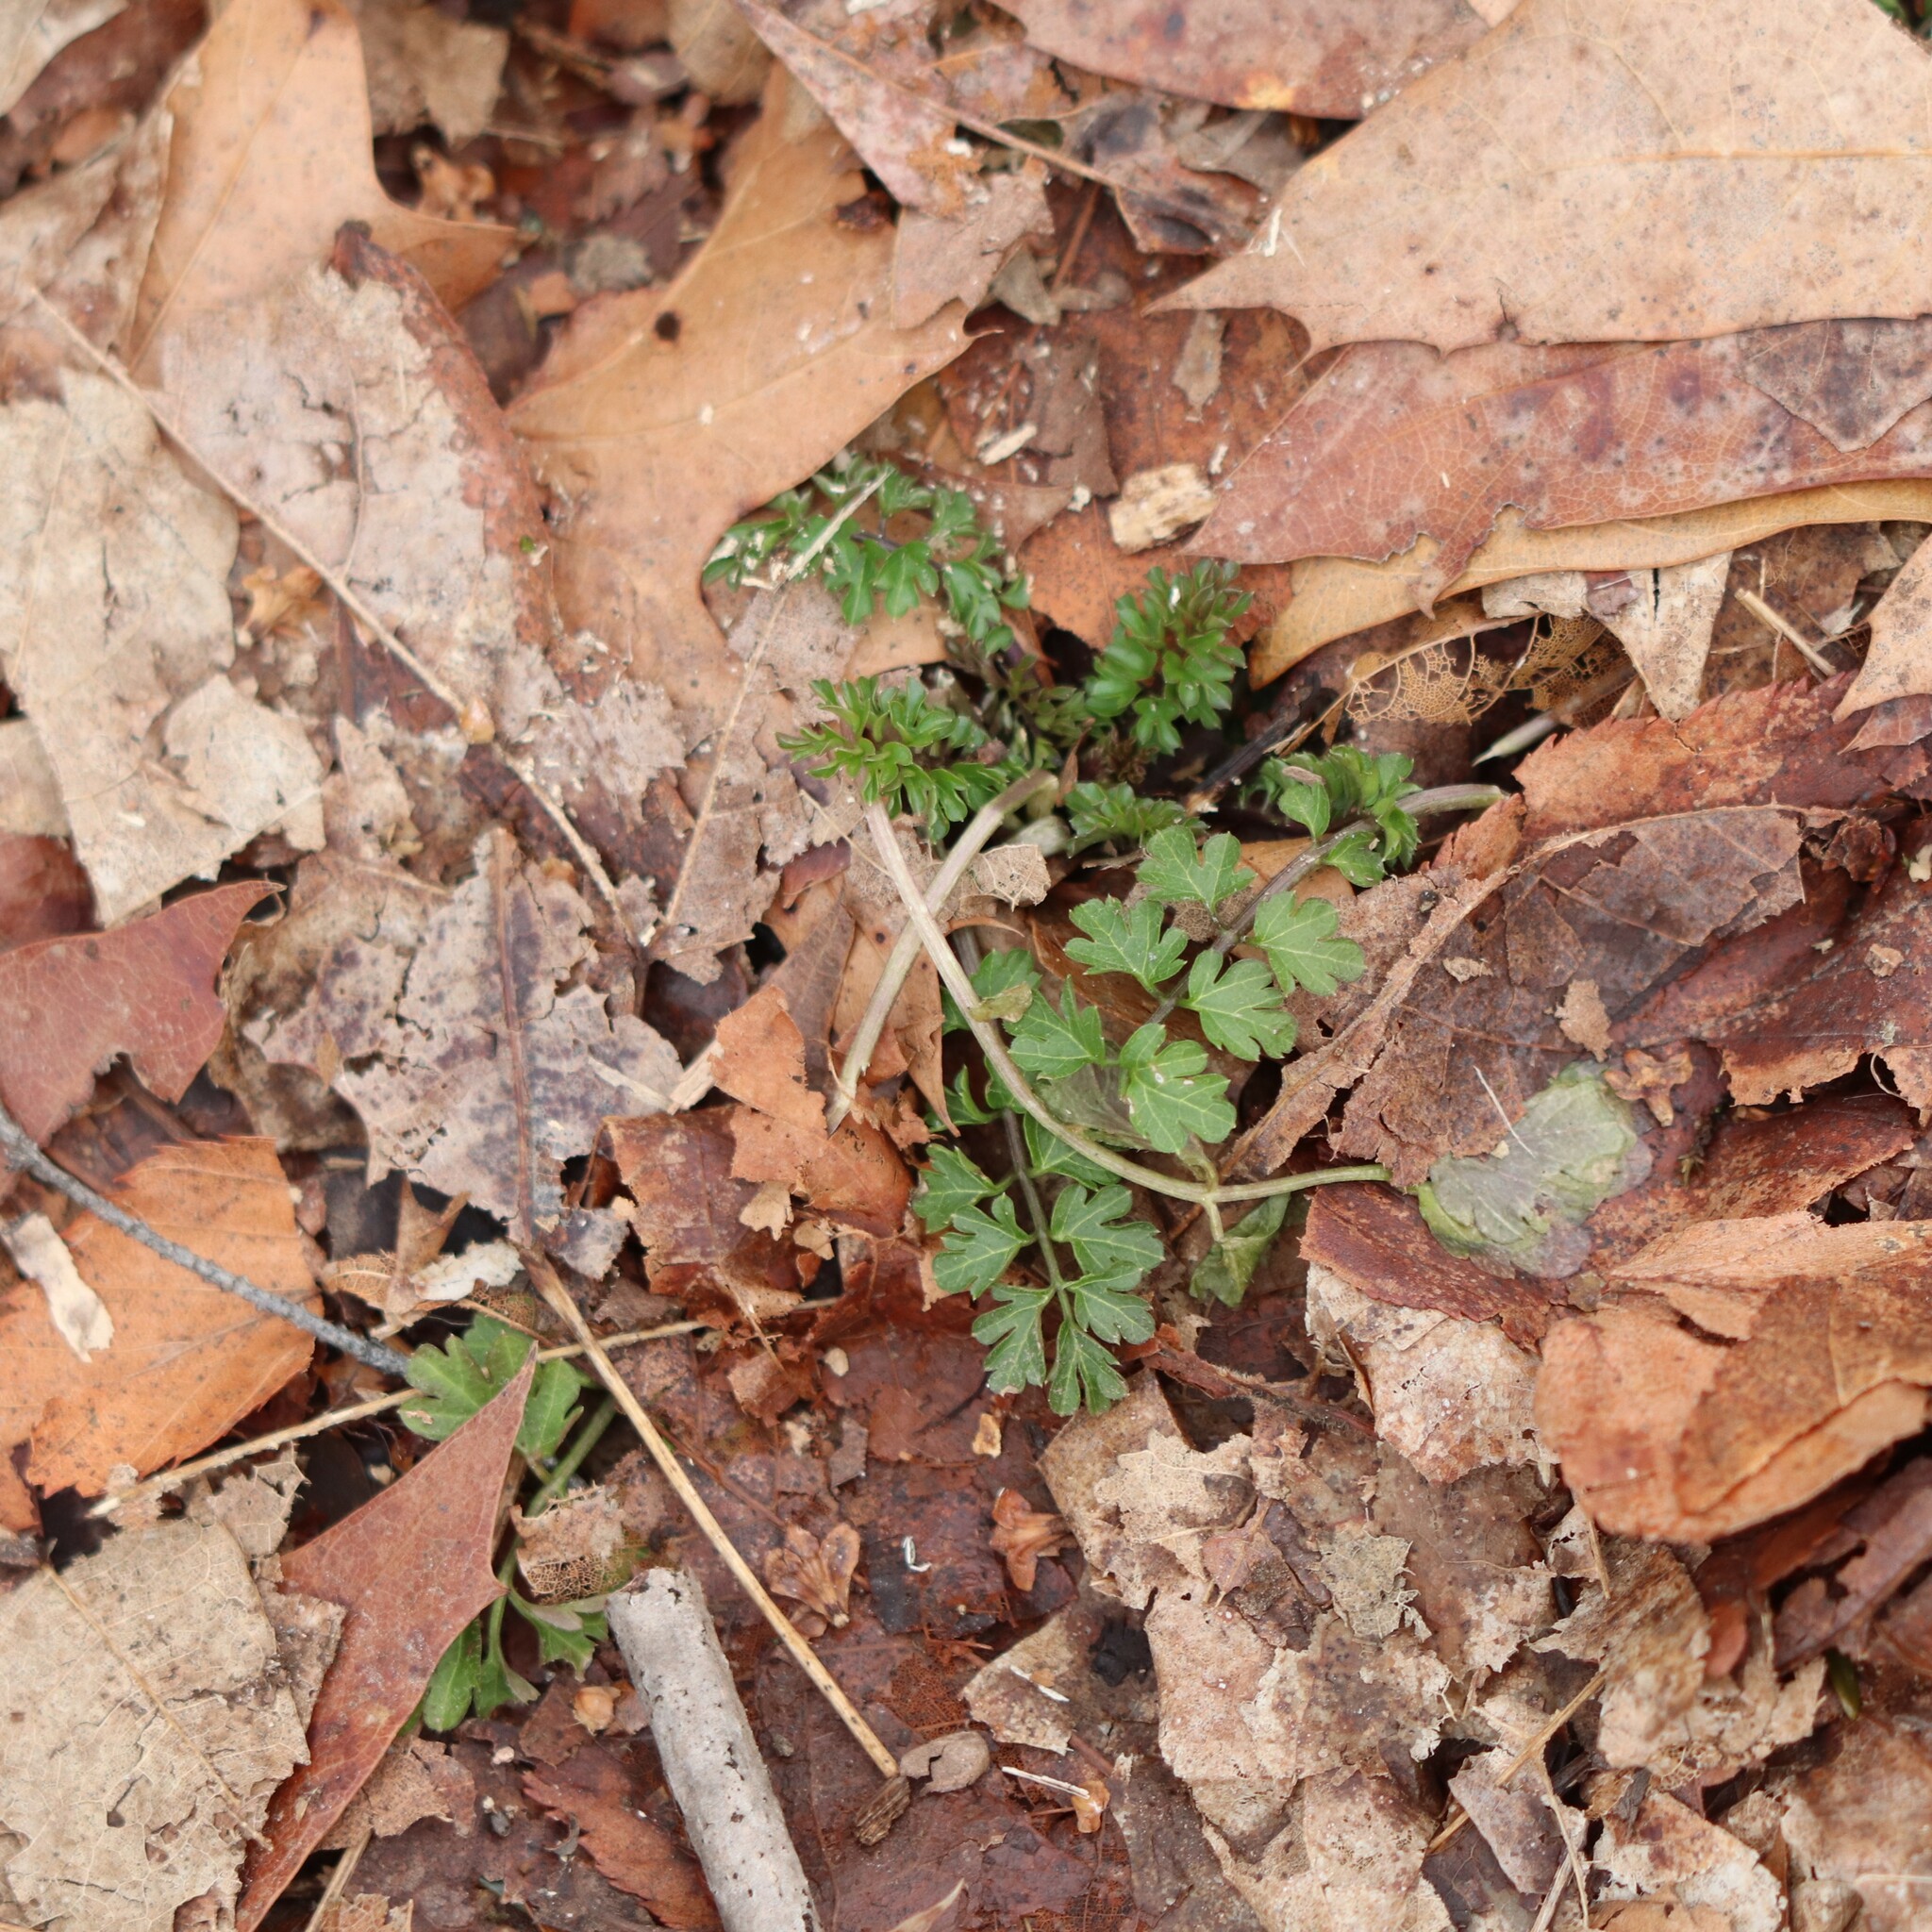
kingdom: Plantae
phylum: Tracheophyta
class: Magnoliopsida
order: Brassicales
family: Brassicaceae
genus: Cardamine
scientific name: Cardamine impatiens
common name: Narrow-leaved bitter-cress
